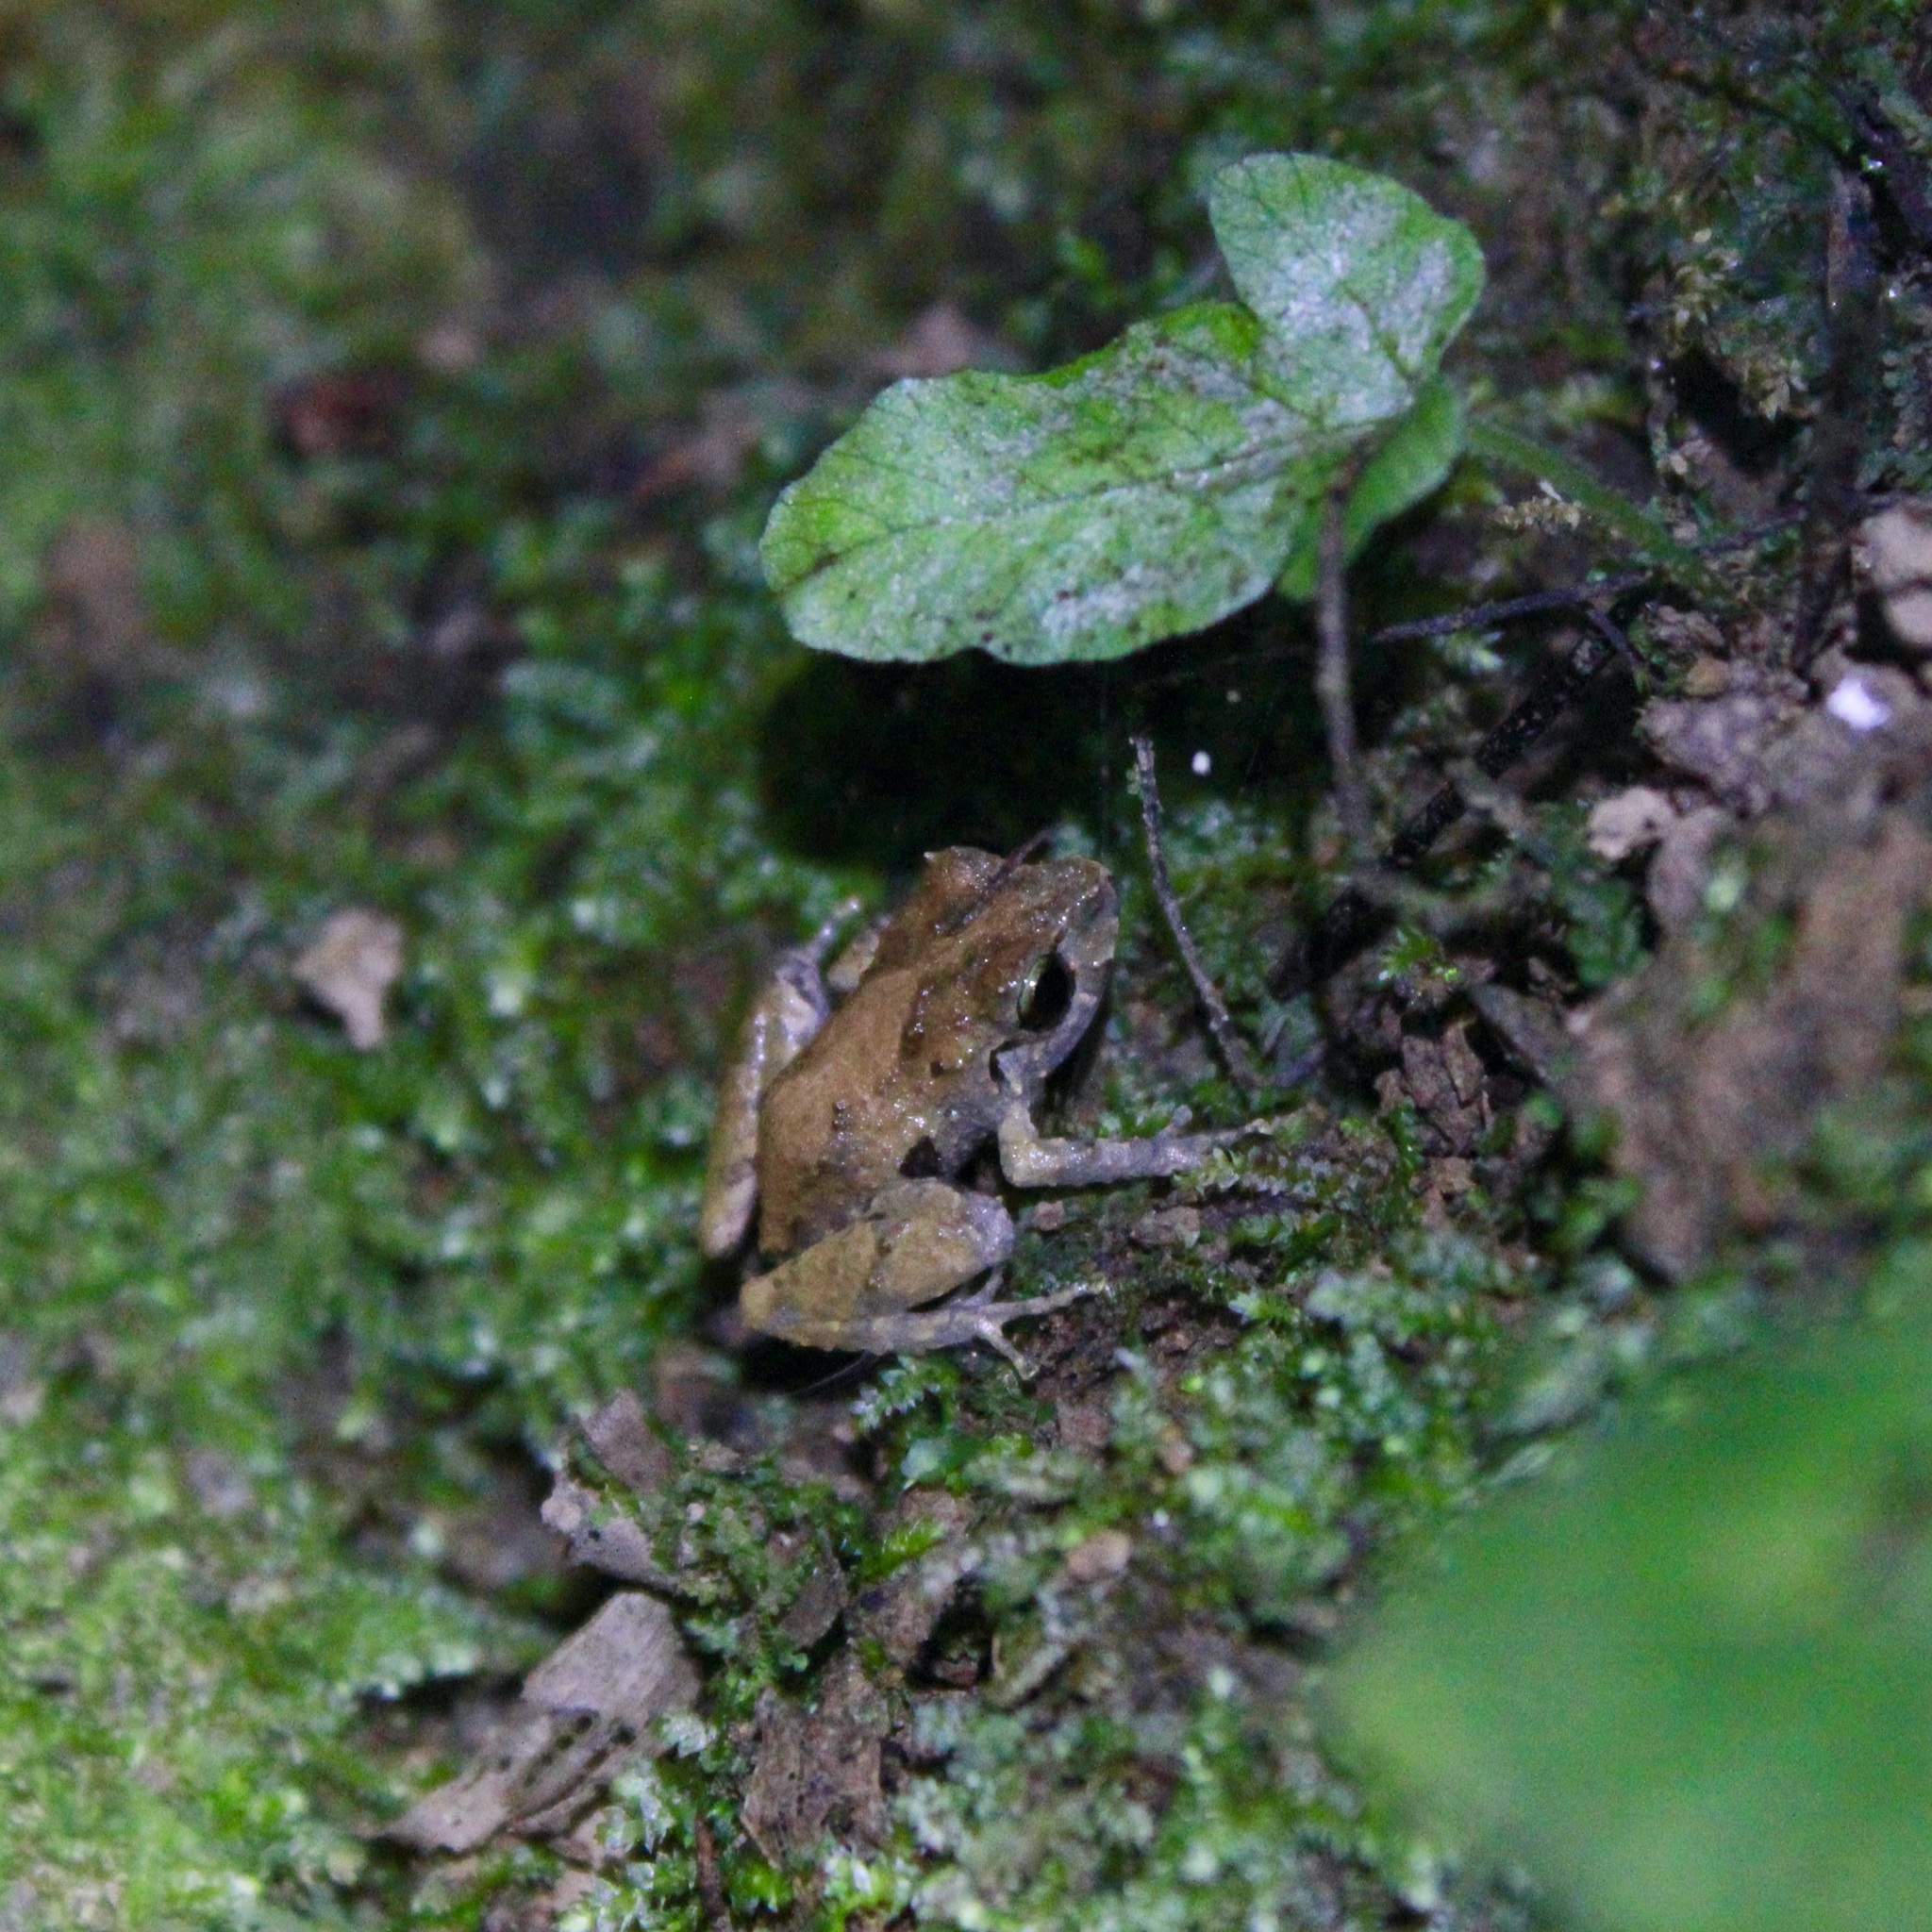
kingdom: Animalia
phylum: Chordata
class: Amphibia
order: Anura
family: Craugastoridae
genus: Pristimantis
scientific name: Pristimantis urichi
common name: Lesser antilles robber frog
